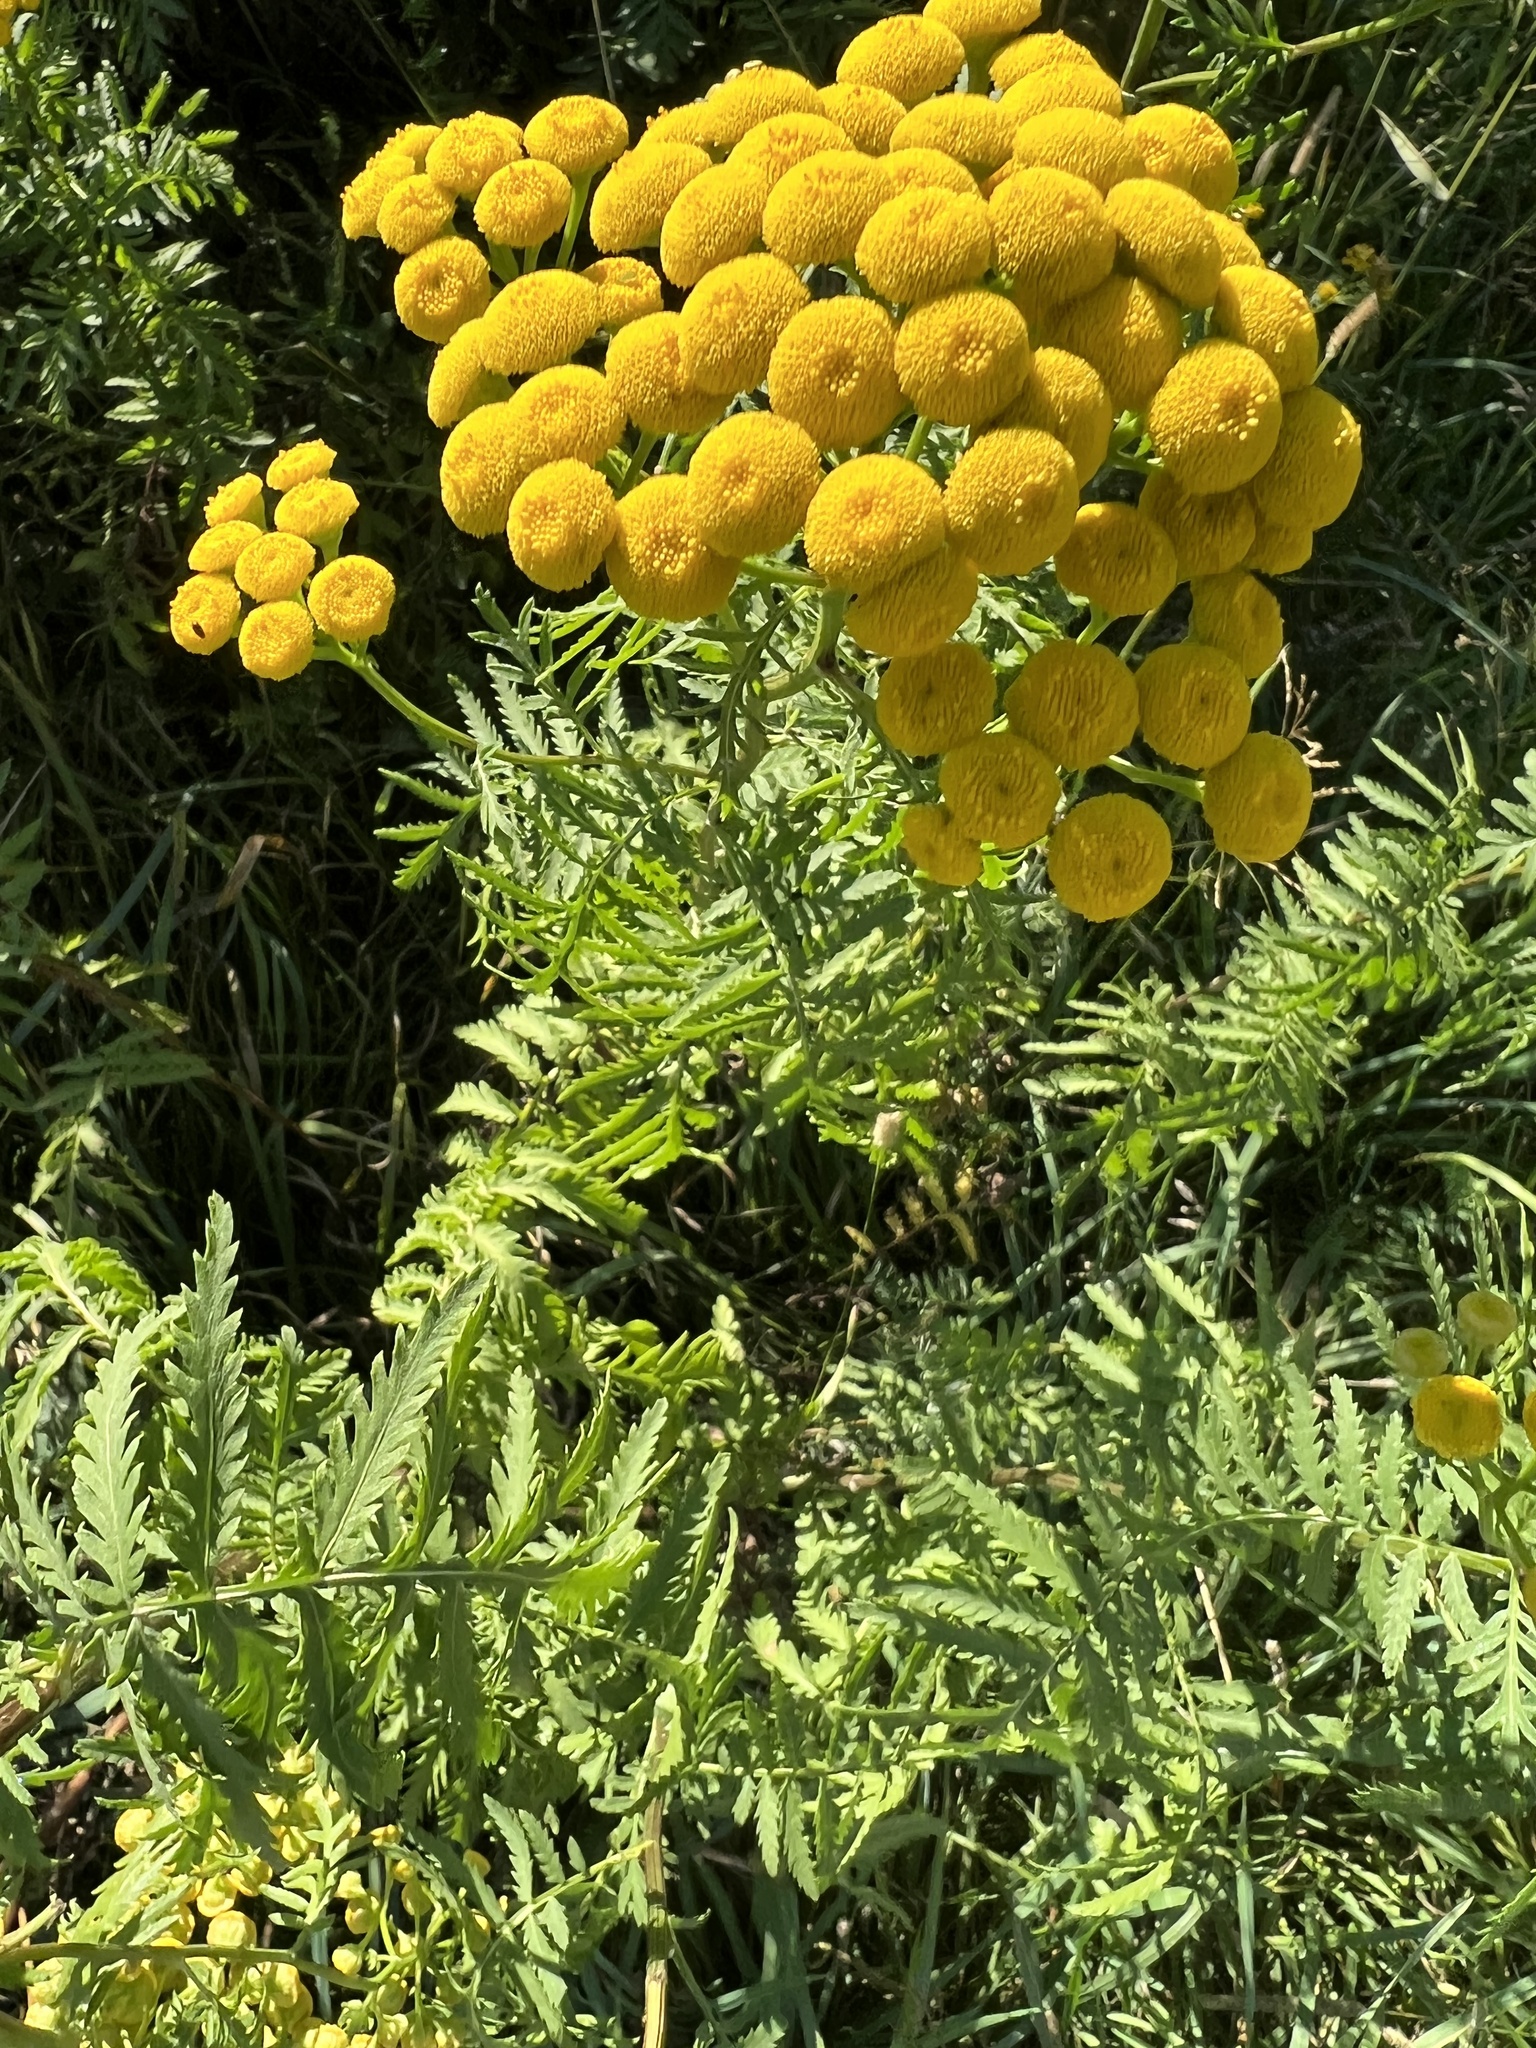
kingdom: Plantae
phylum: Tracheophyta
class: Magnoliopsida
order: Asterales
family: Asteraceae
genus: Tanacetum
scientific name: Tanacetum vulgare
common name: Common tansy
